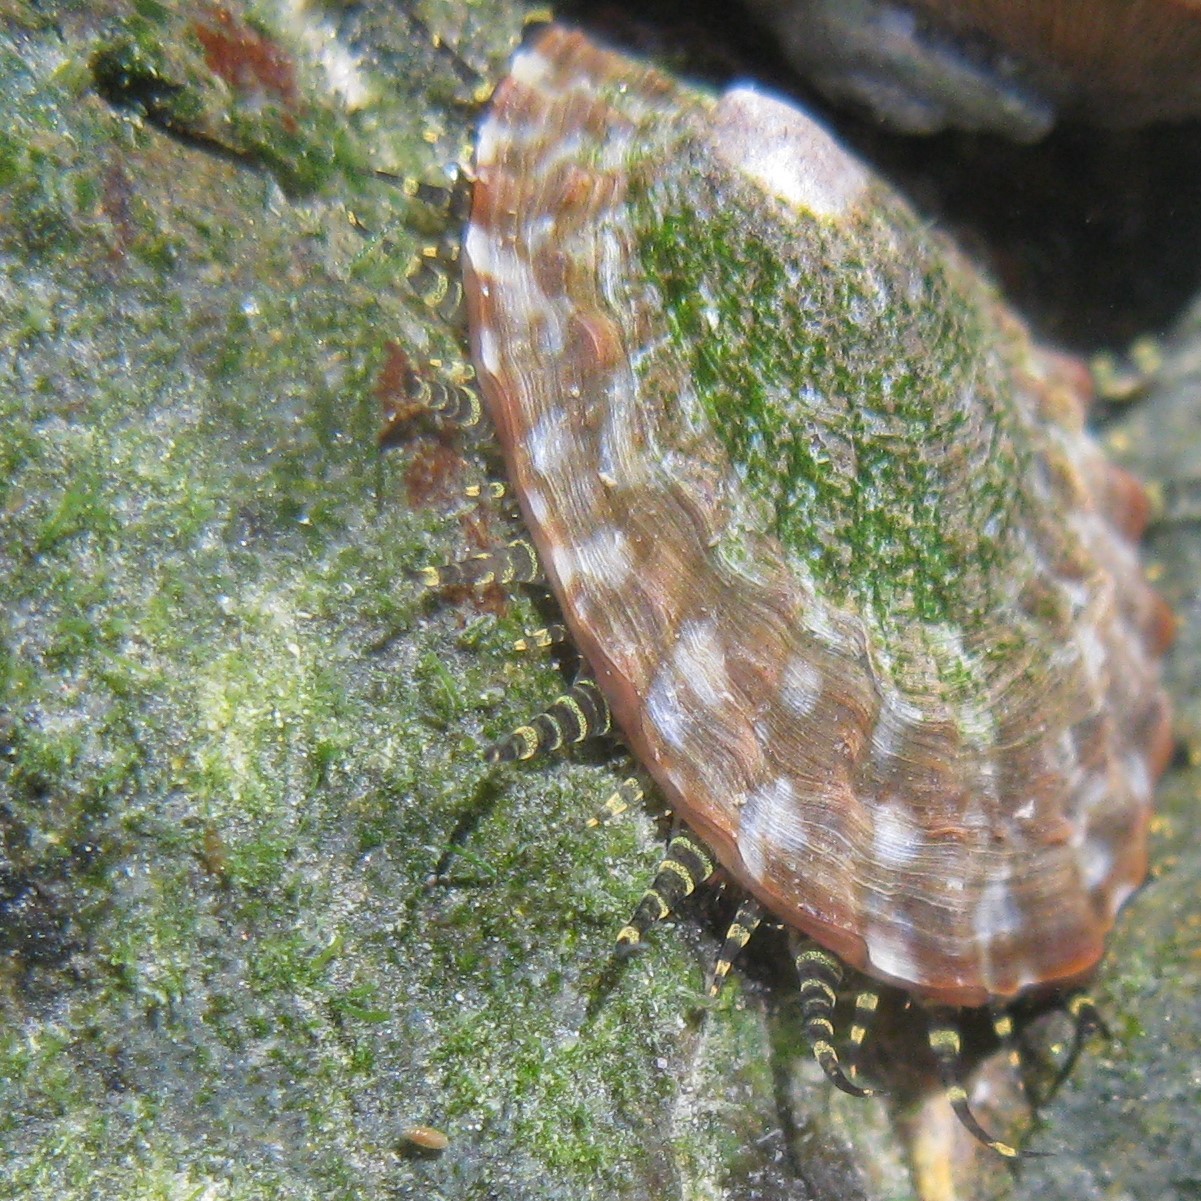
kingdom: Animalia
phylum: Mollusca
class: Gastropoda
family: Nacellidae
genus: Cellana
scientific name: Cellana denticulata
